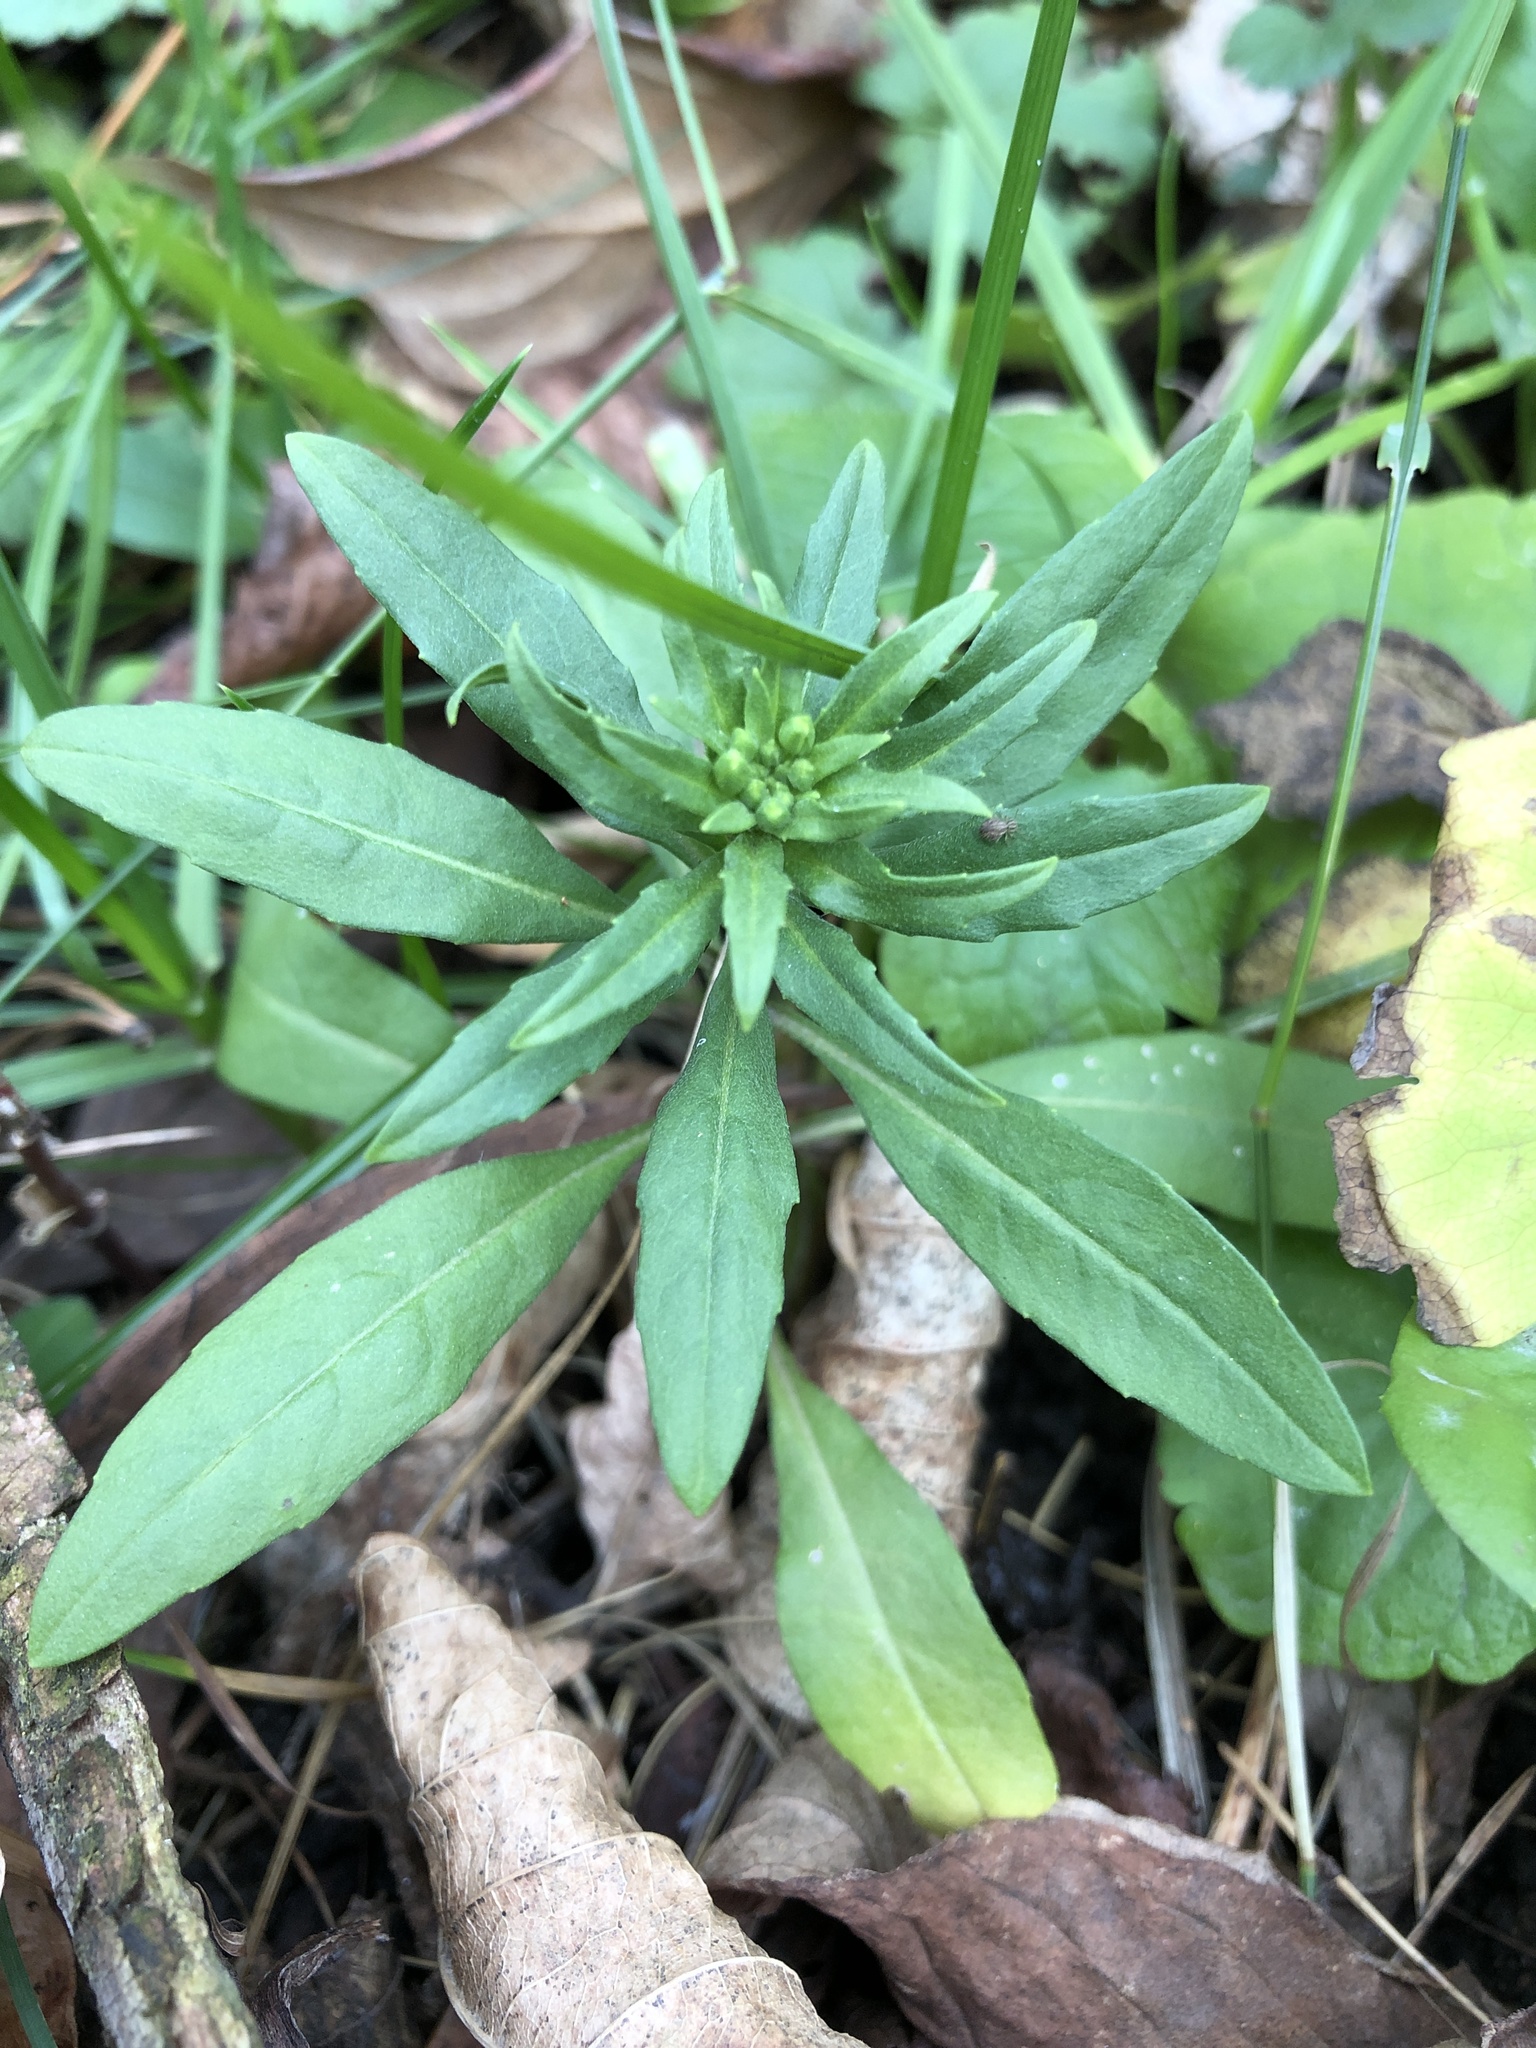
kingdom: Plantae
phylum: Tracheophyta
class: Magnoliopsida
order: Brassicales
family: Brassicaceae
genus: Erysimum
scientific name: Erysimum cheiranthoides
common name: Treacle mustard
